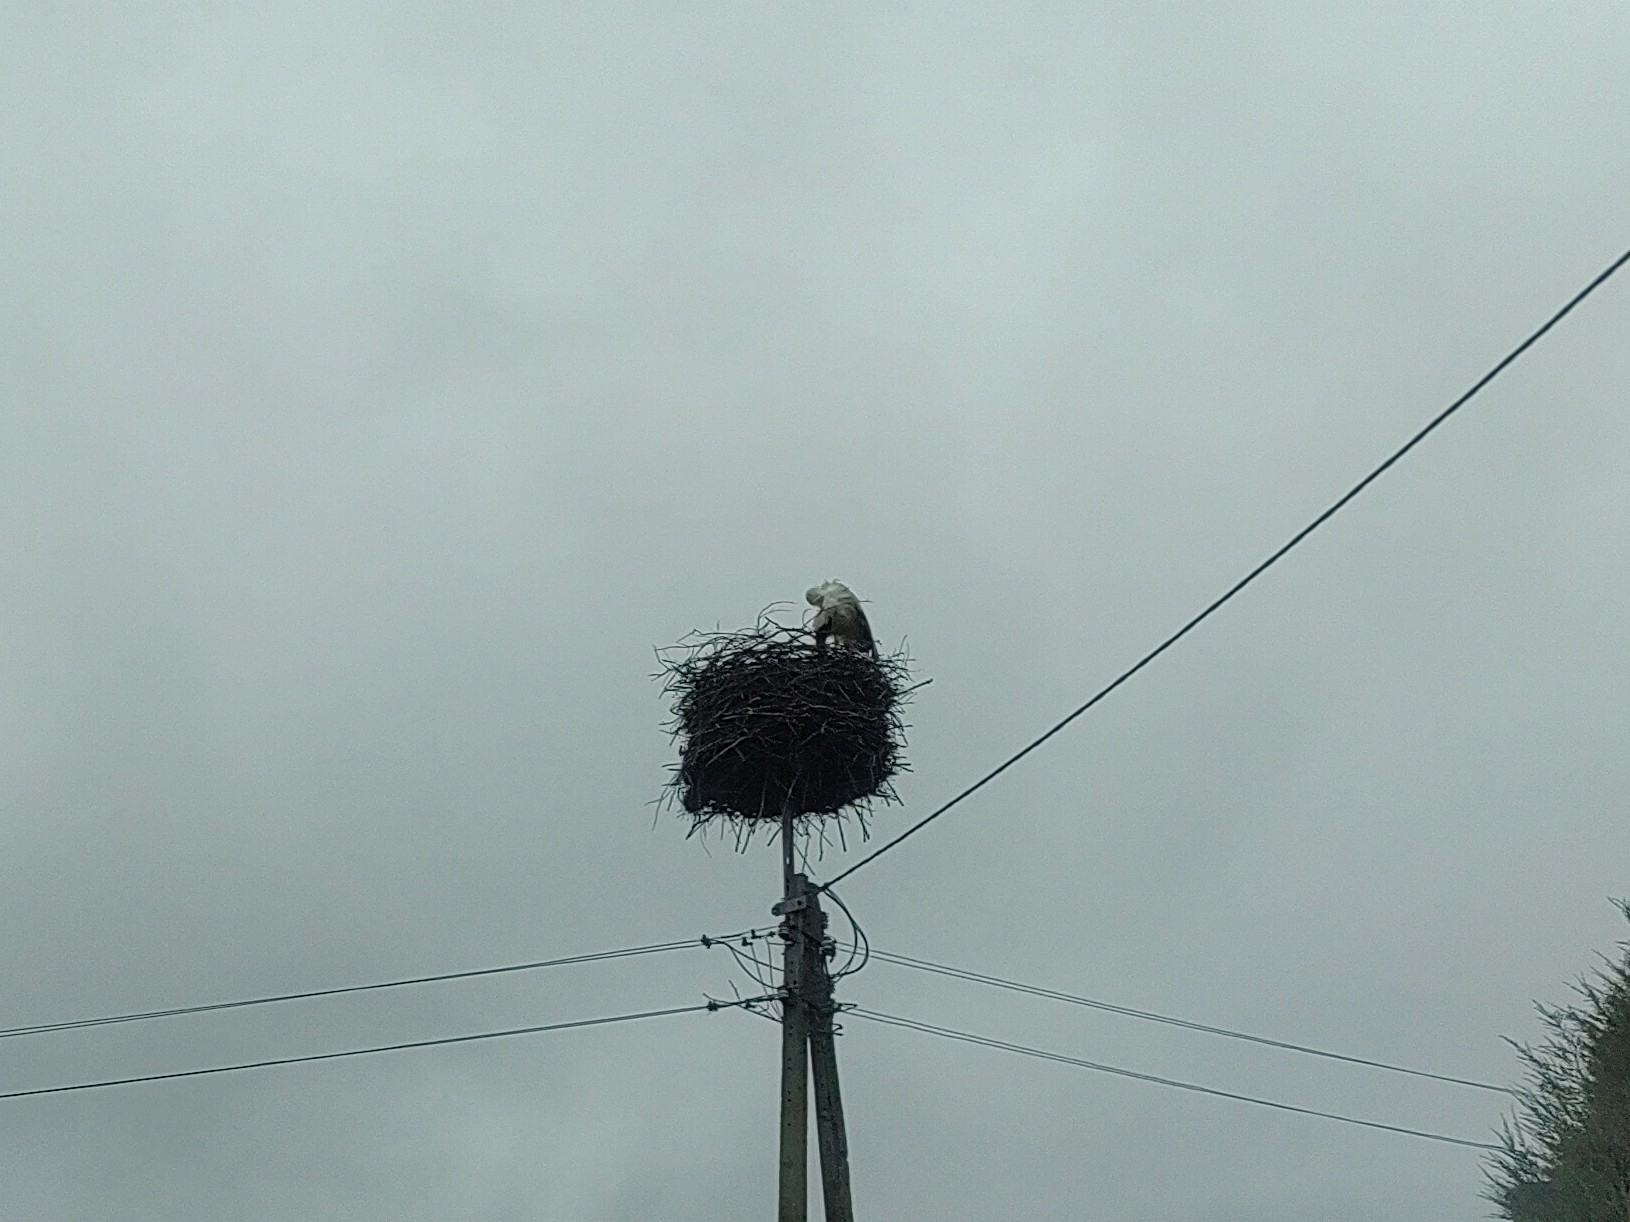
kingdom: Animalia
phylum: Chordata
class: Aves
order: Ciconiiformes
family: Ciconiidae
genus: Ciconia
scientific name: Ciconia ciconia
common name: White stork
